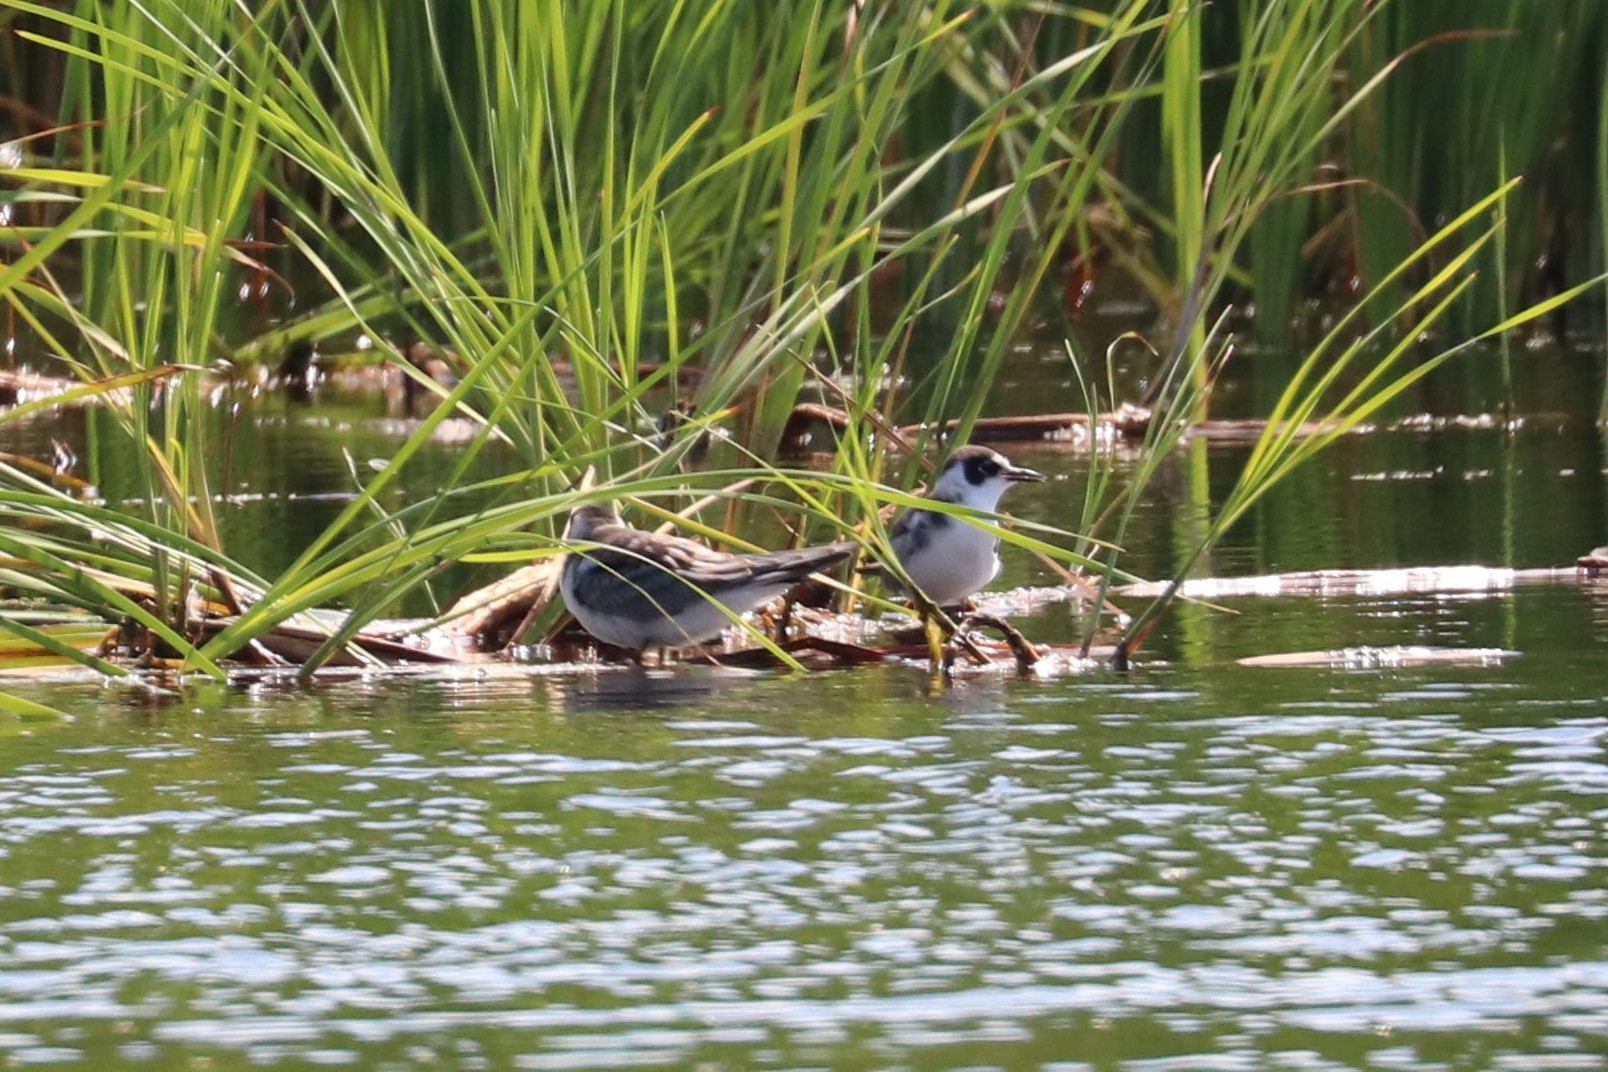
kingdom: Animalia
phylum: Chordata
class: Aves
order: Charadriiformes
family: Laridae
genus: Chlidonias
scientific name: Chlidonias niger
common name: Black tern
